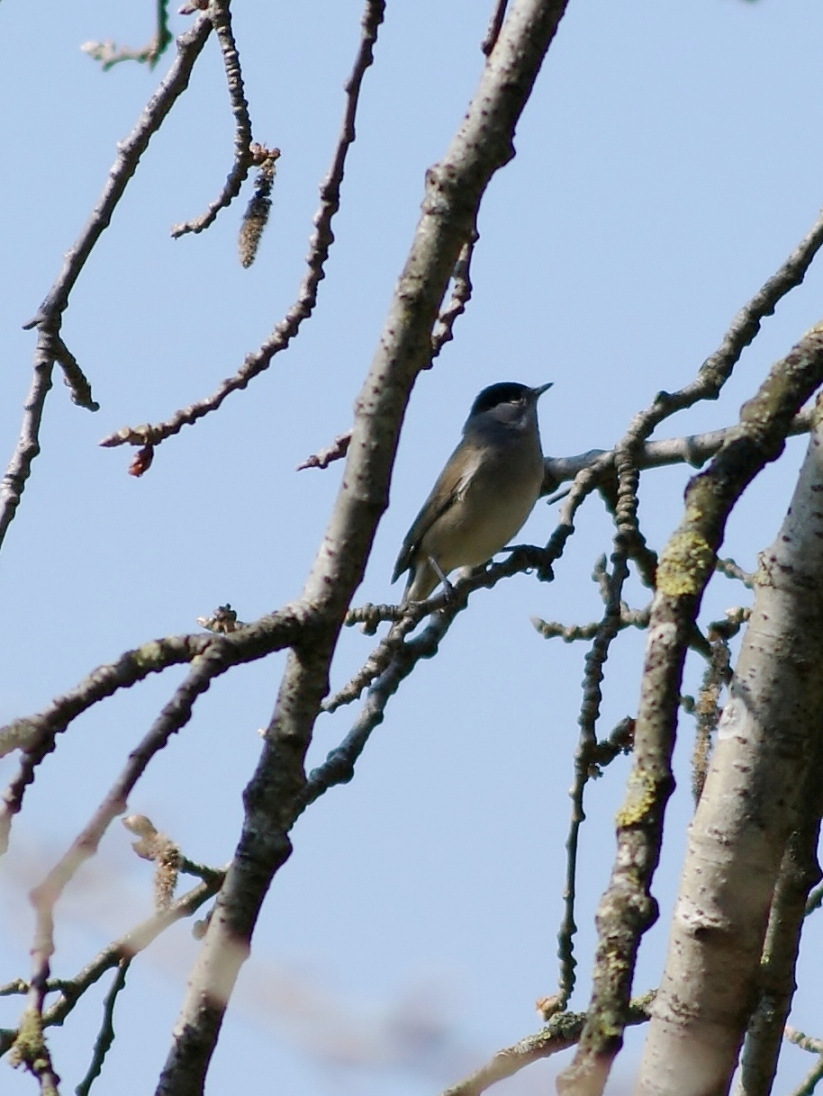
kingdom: Animalia
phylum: Chordata
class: Aves
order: Passeriformes
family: Sylviidae
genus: Sylvia
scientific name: Sylvia atricapilla
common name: Eurasian blackcap
